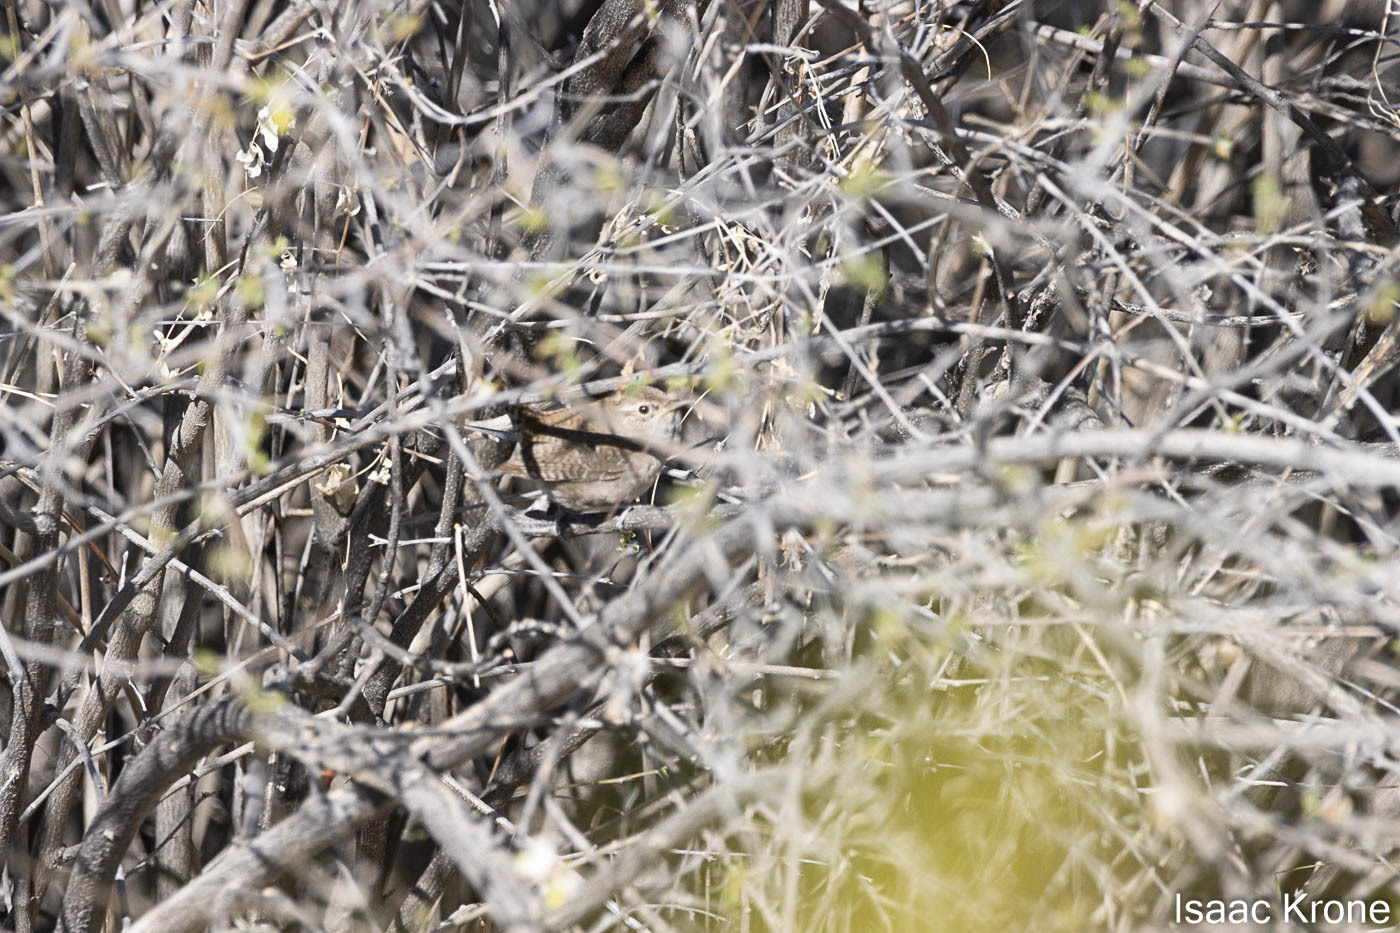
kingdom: Animalia
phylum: Chordata
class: Aves
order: Passeriformes
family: Troglodytidae
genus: Troglodytes
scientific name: Troglodytes aedon
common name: House wren
